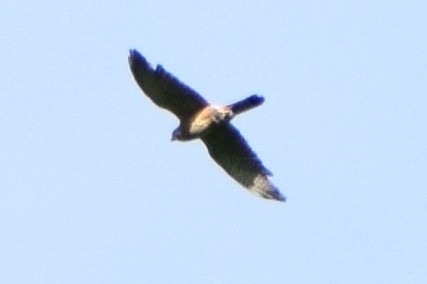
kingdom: Animalia
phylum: Chordata
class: Aves
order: Falconiformes
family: Falconidae
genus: Falco
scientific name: Falco tinnunculus
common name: Common kestrel
